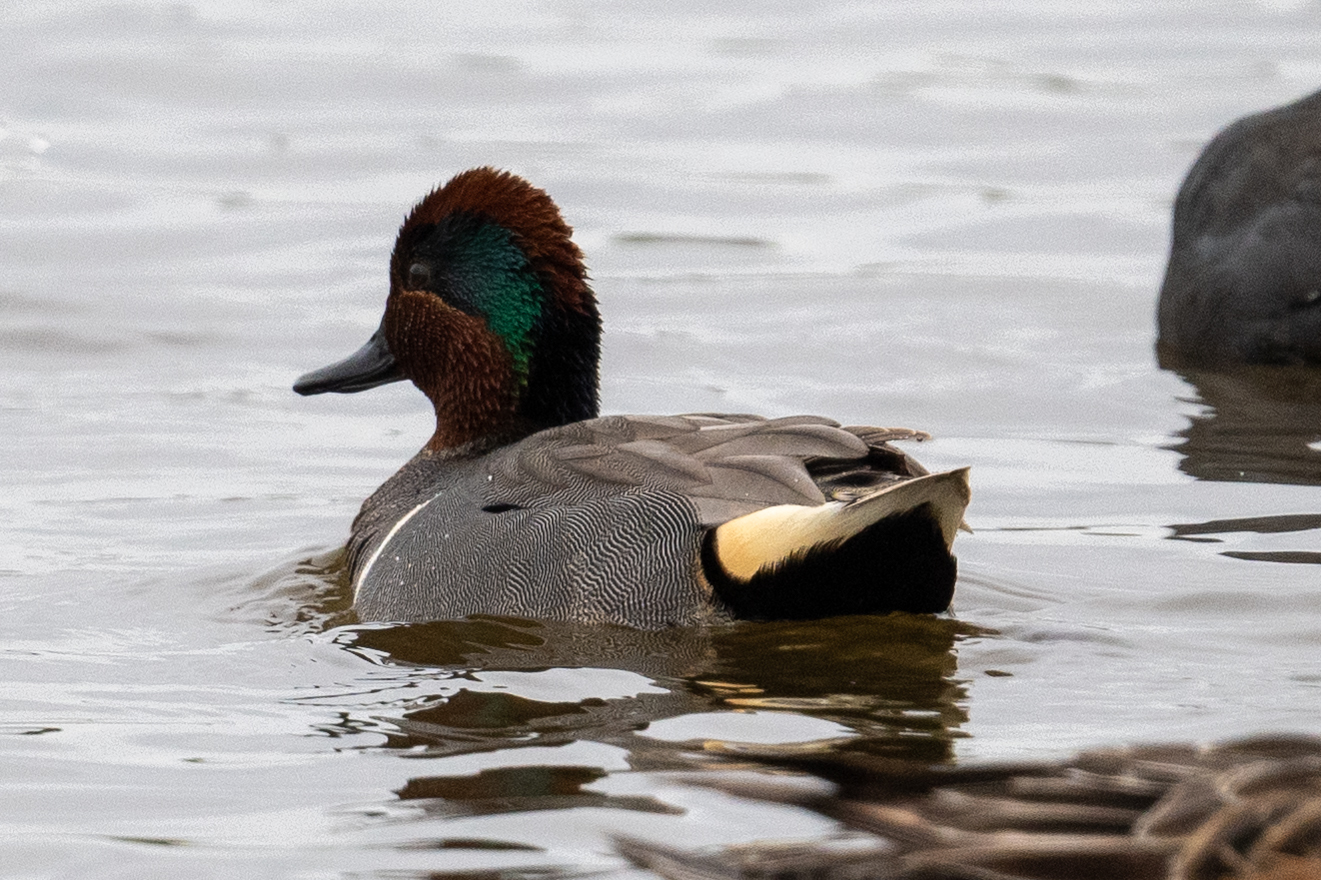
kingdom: Animalia
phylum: Chordata
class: Aves
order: Anseriformes
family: Anatidae
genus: Anas
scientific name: Anas crecca
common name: Eurasian teal
